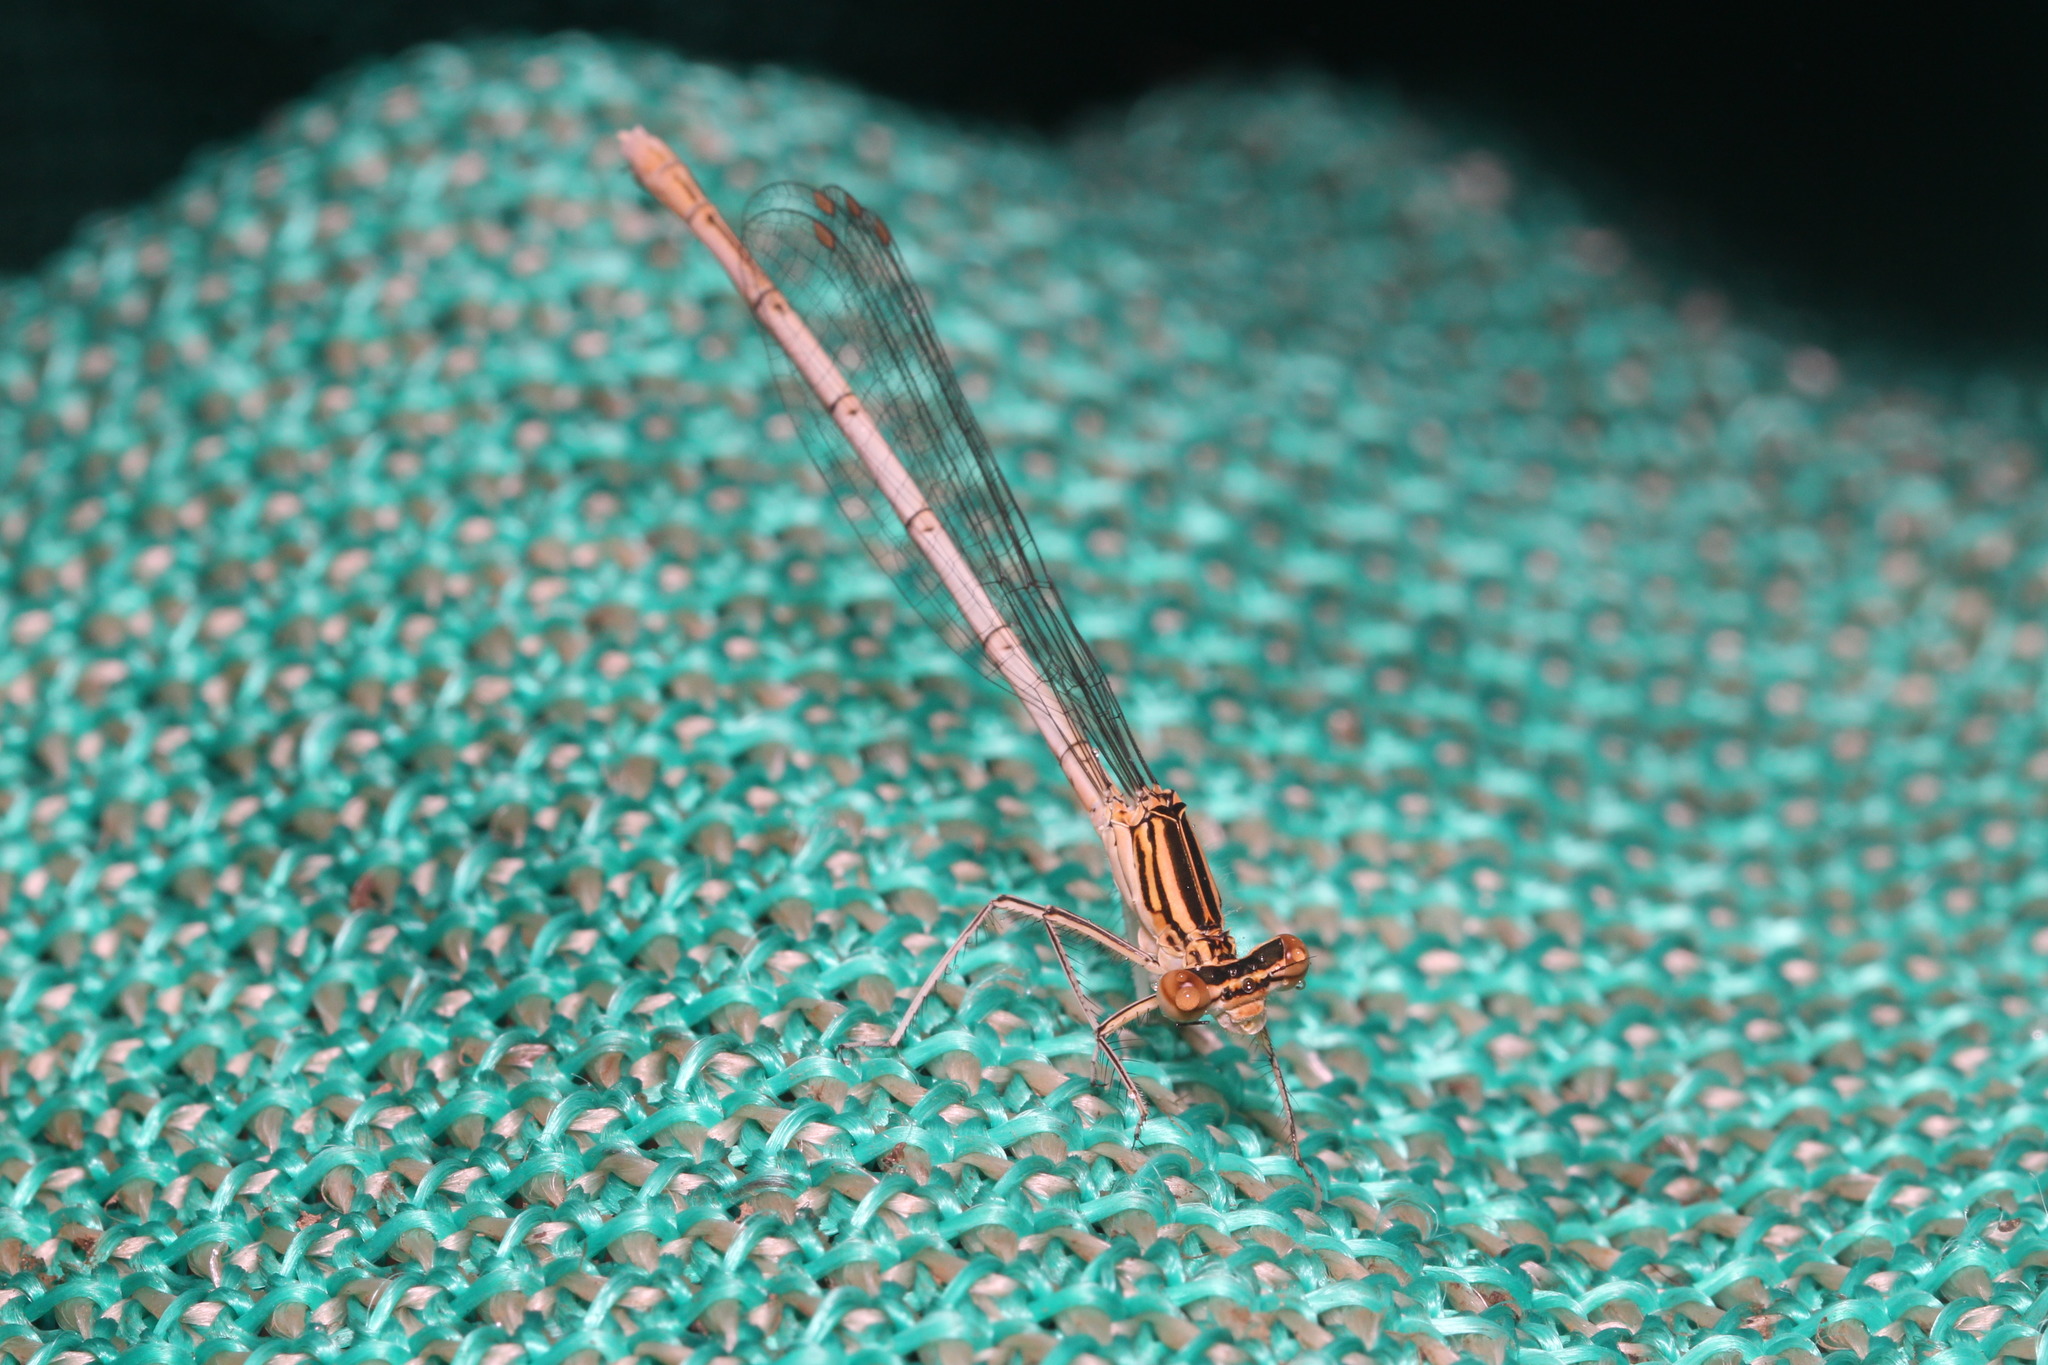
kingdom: Animalia
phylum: Arthropoda
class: Insecta
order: Odonata
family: Platycnemididae
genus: Platycnemis
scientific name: Platycnemis pennipes
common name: White-legged damselfly
